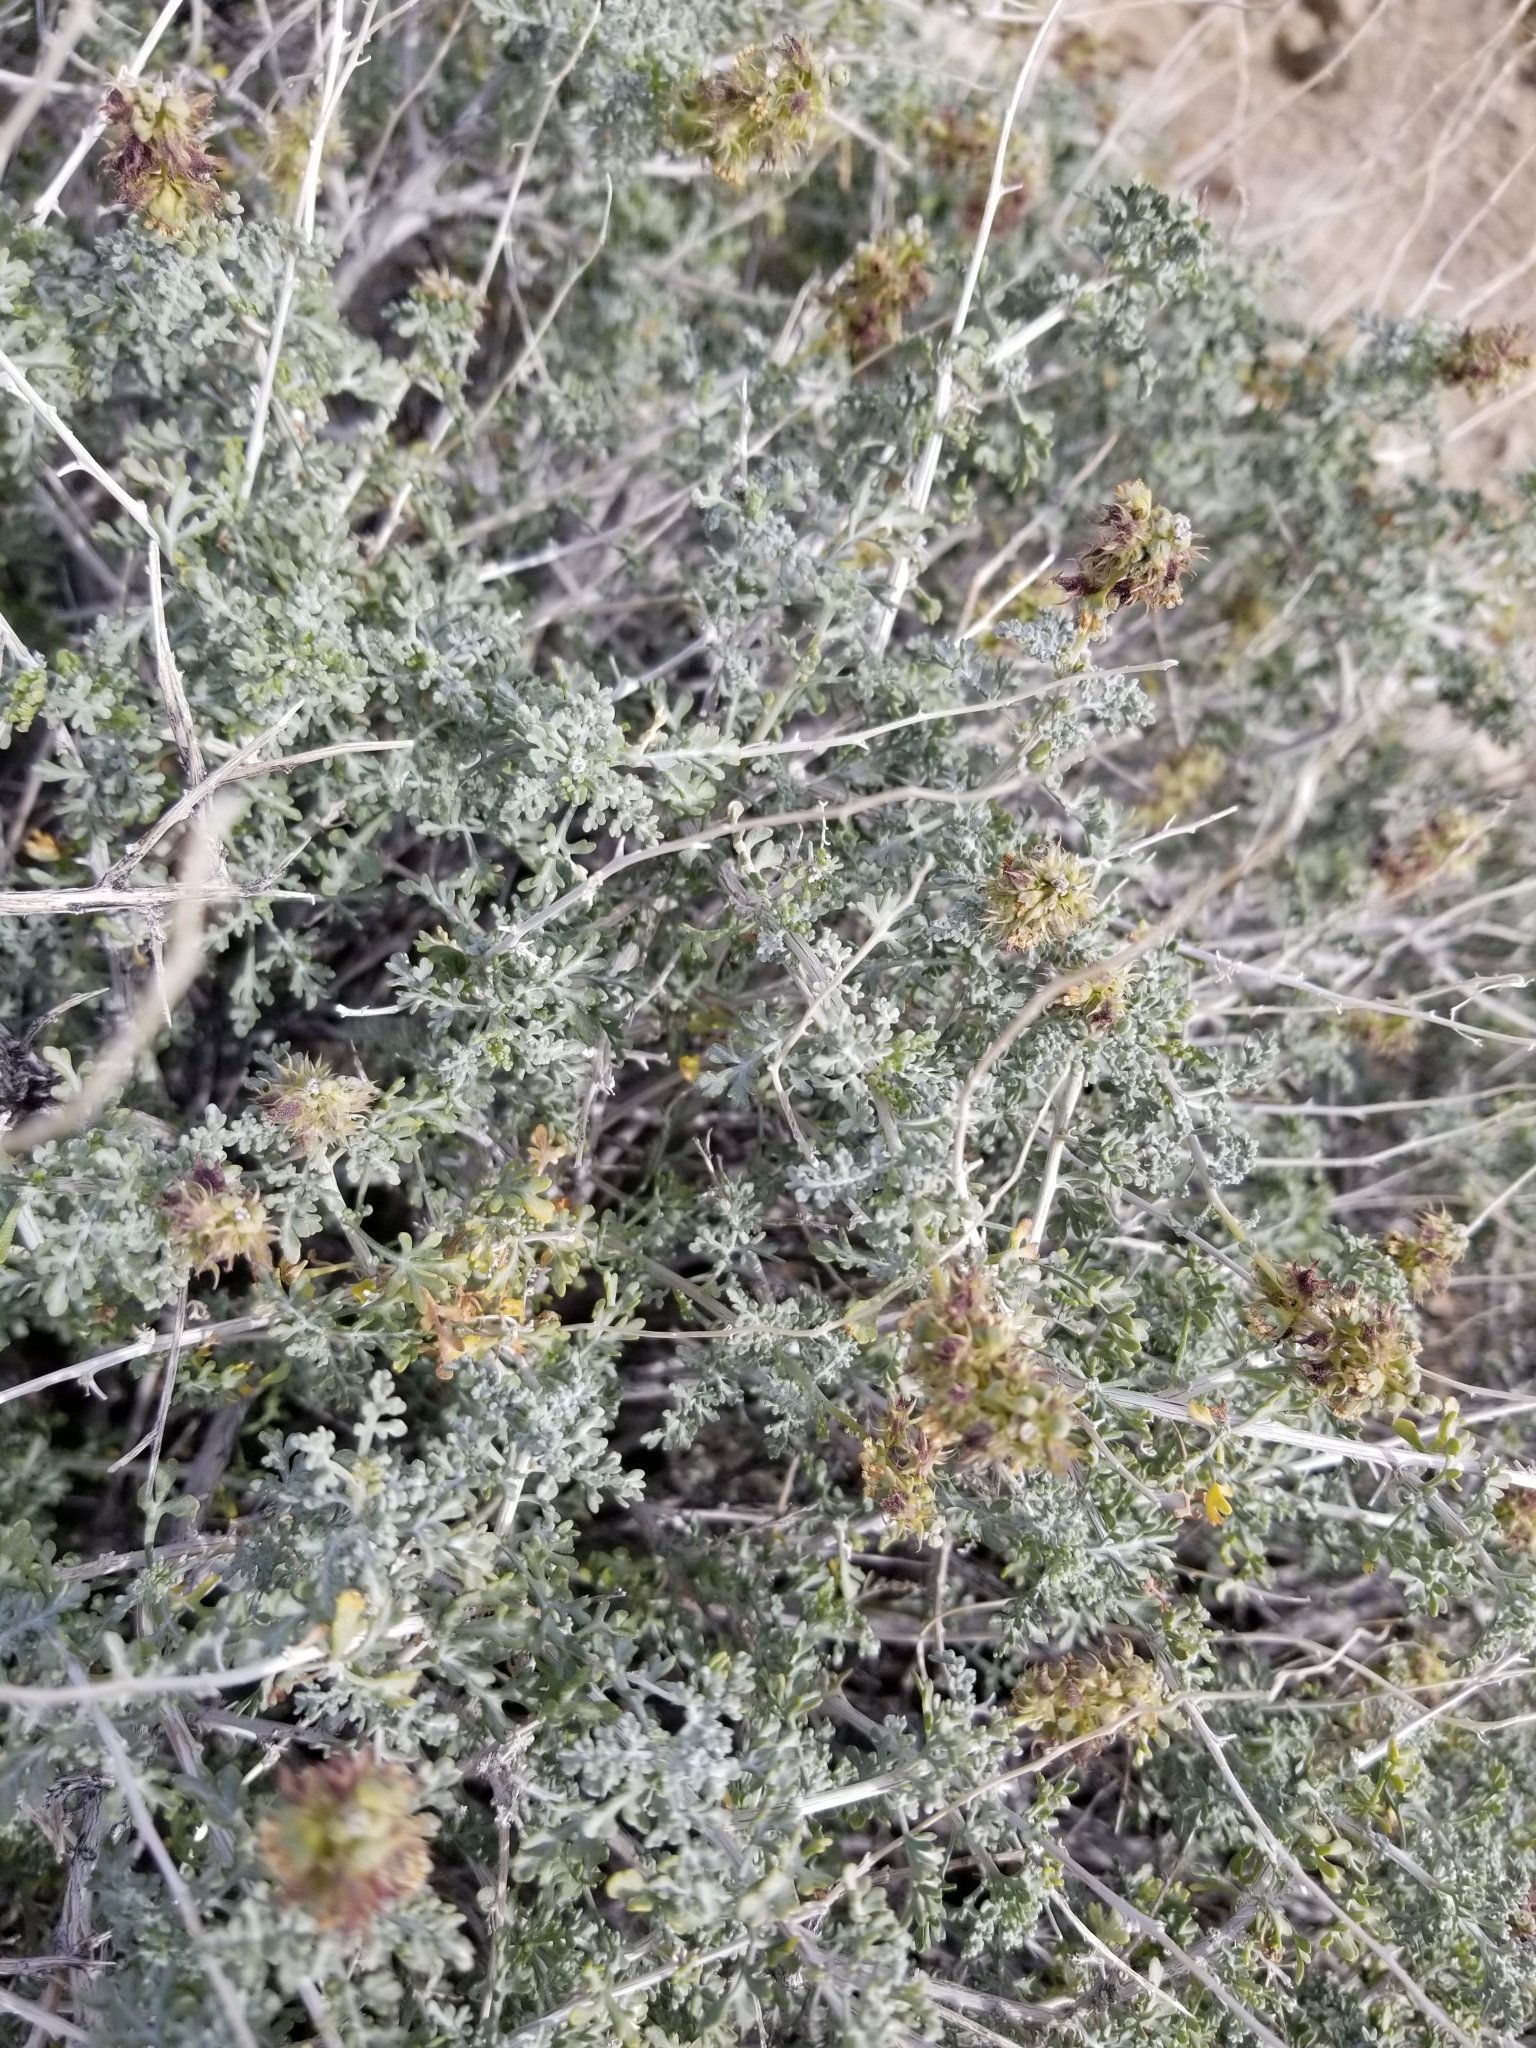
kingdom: Plantae
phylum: Tracheophyta
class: Magnoliopsida
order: Asterales
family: Asteraceae
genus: Ambrosia
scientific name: Ambrosia dumosa
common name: Bur-sage
